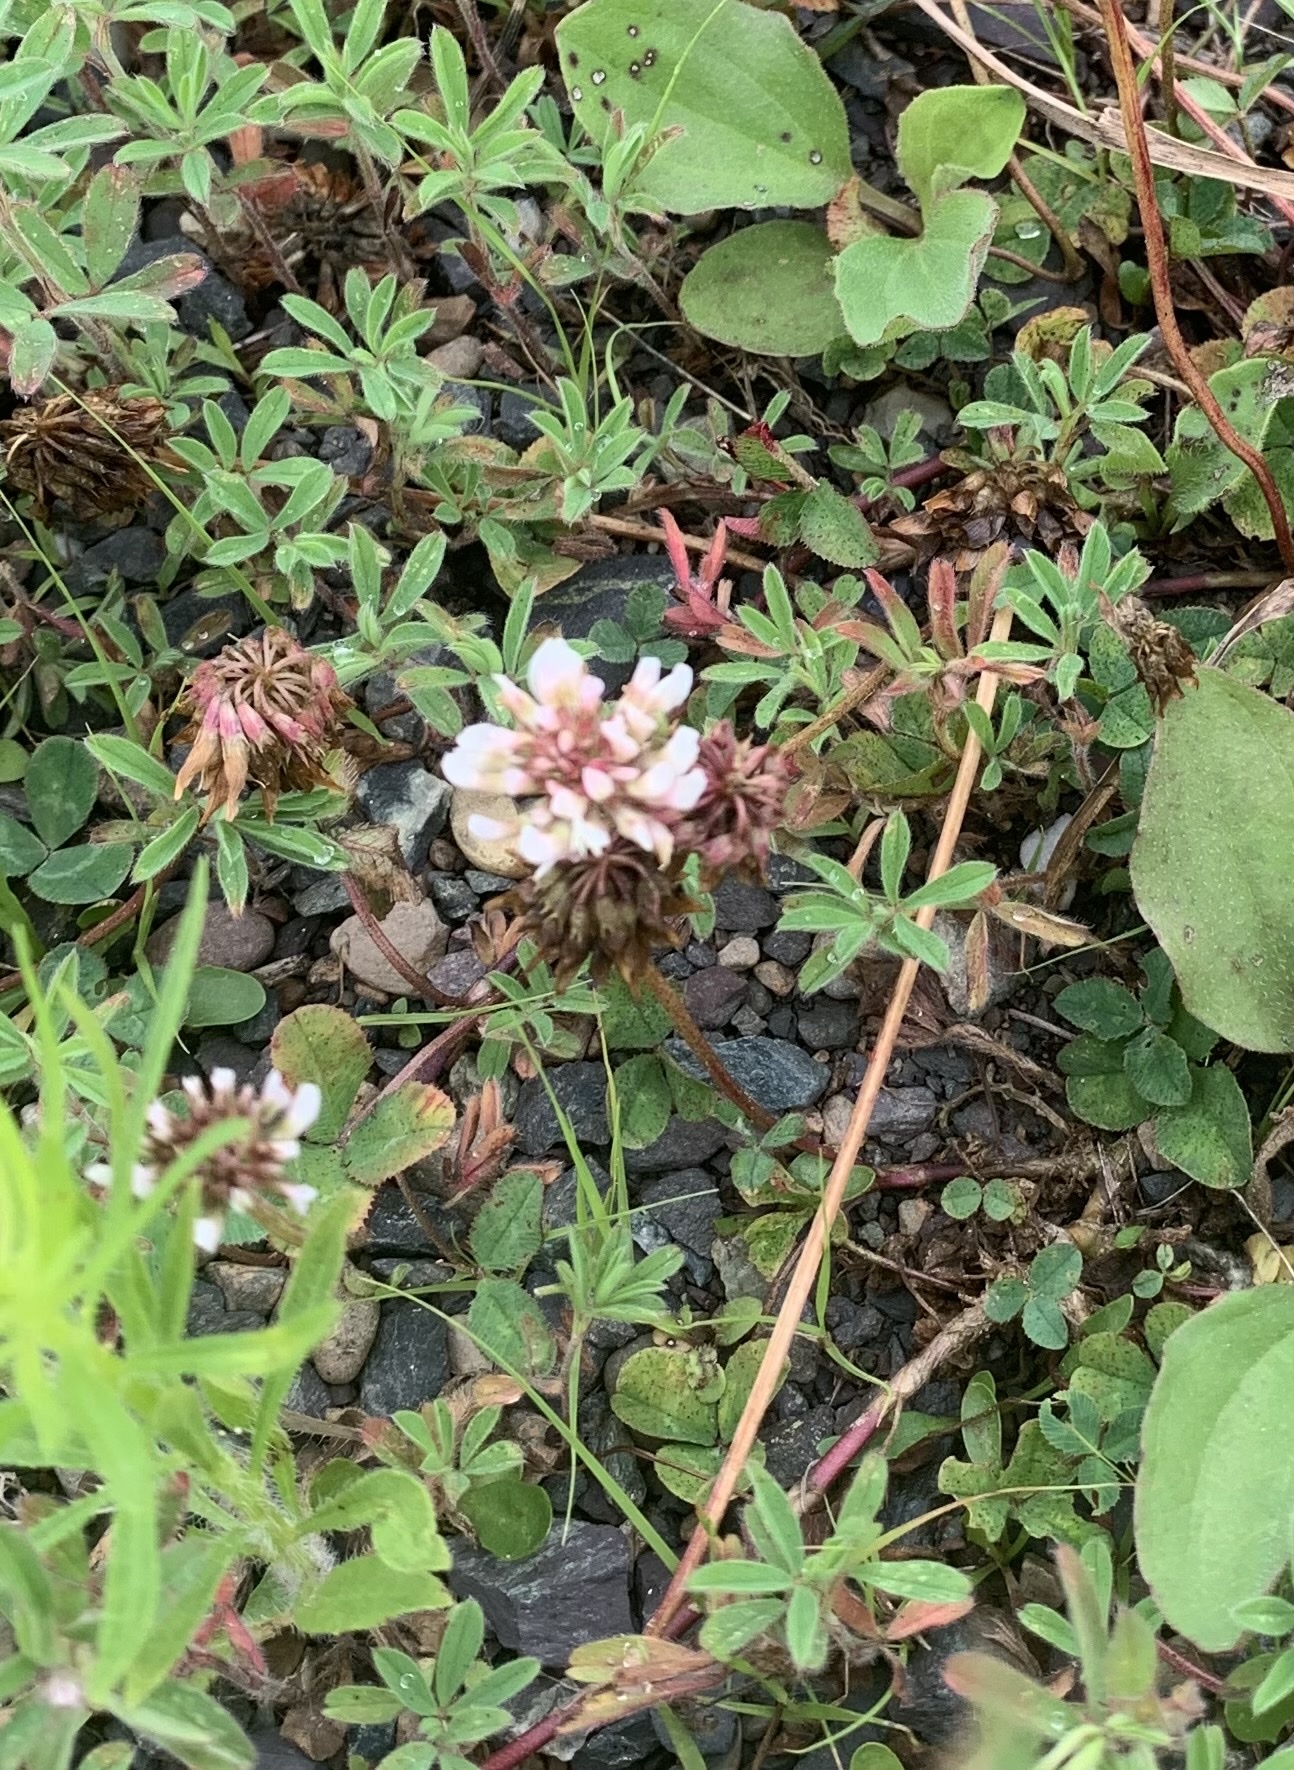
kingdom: Plantae
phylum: Tracheophyta
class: Magnoliopsida
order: Fabales
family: Fabaceae
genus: Trifolium
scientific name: Trifolium hybridum
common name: Alsike clover
